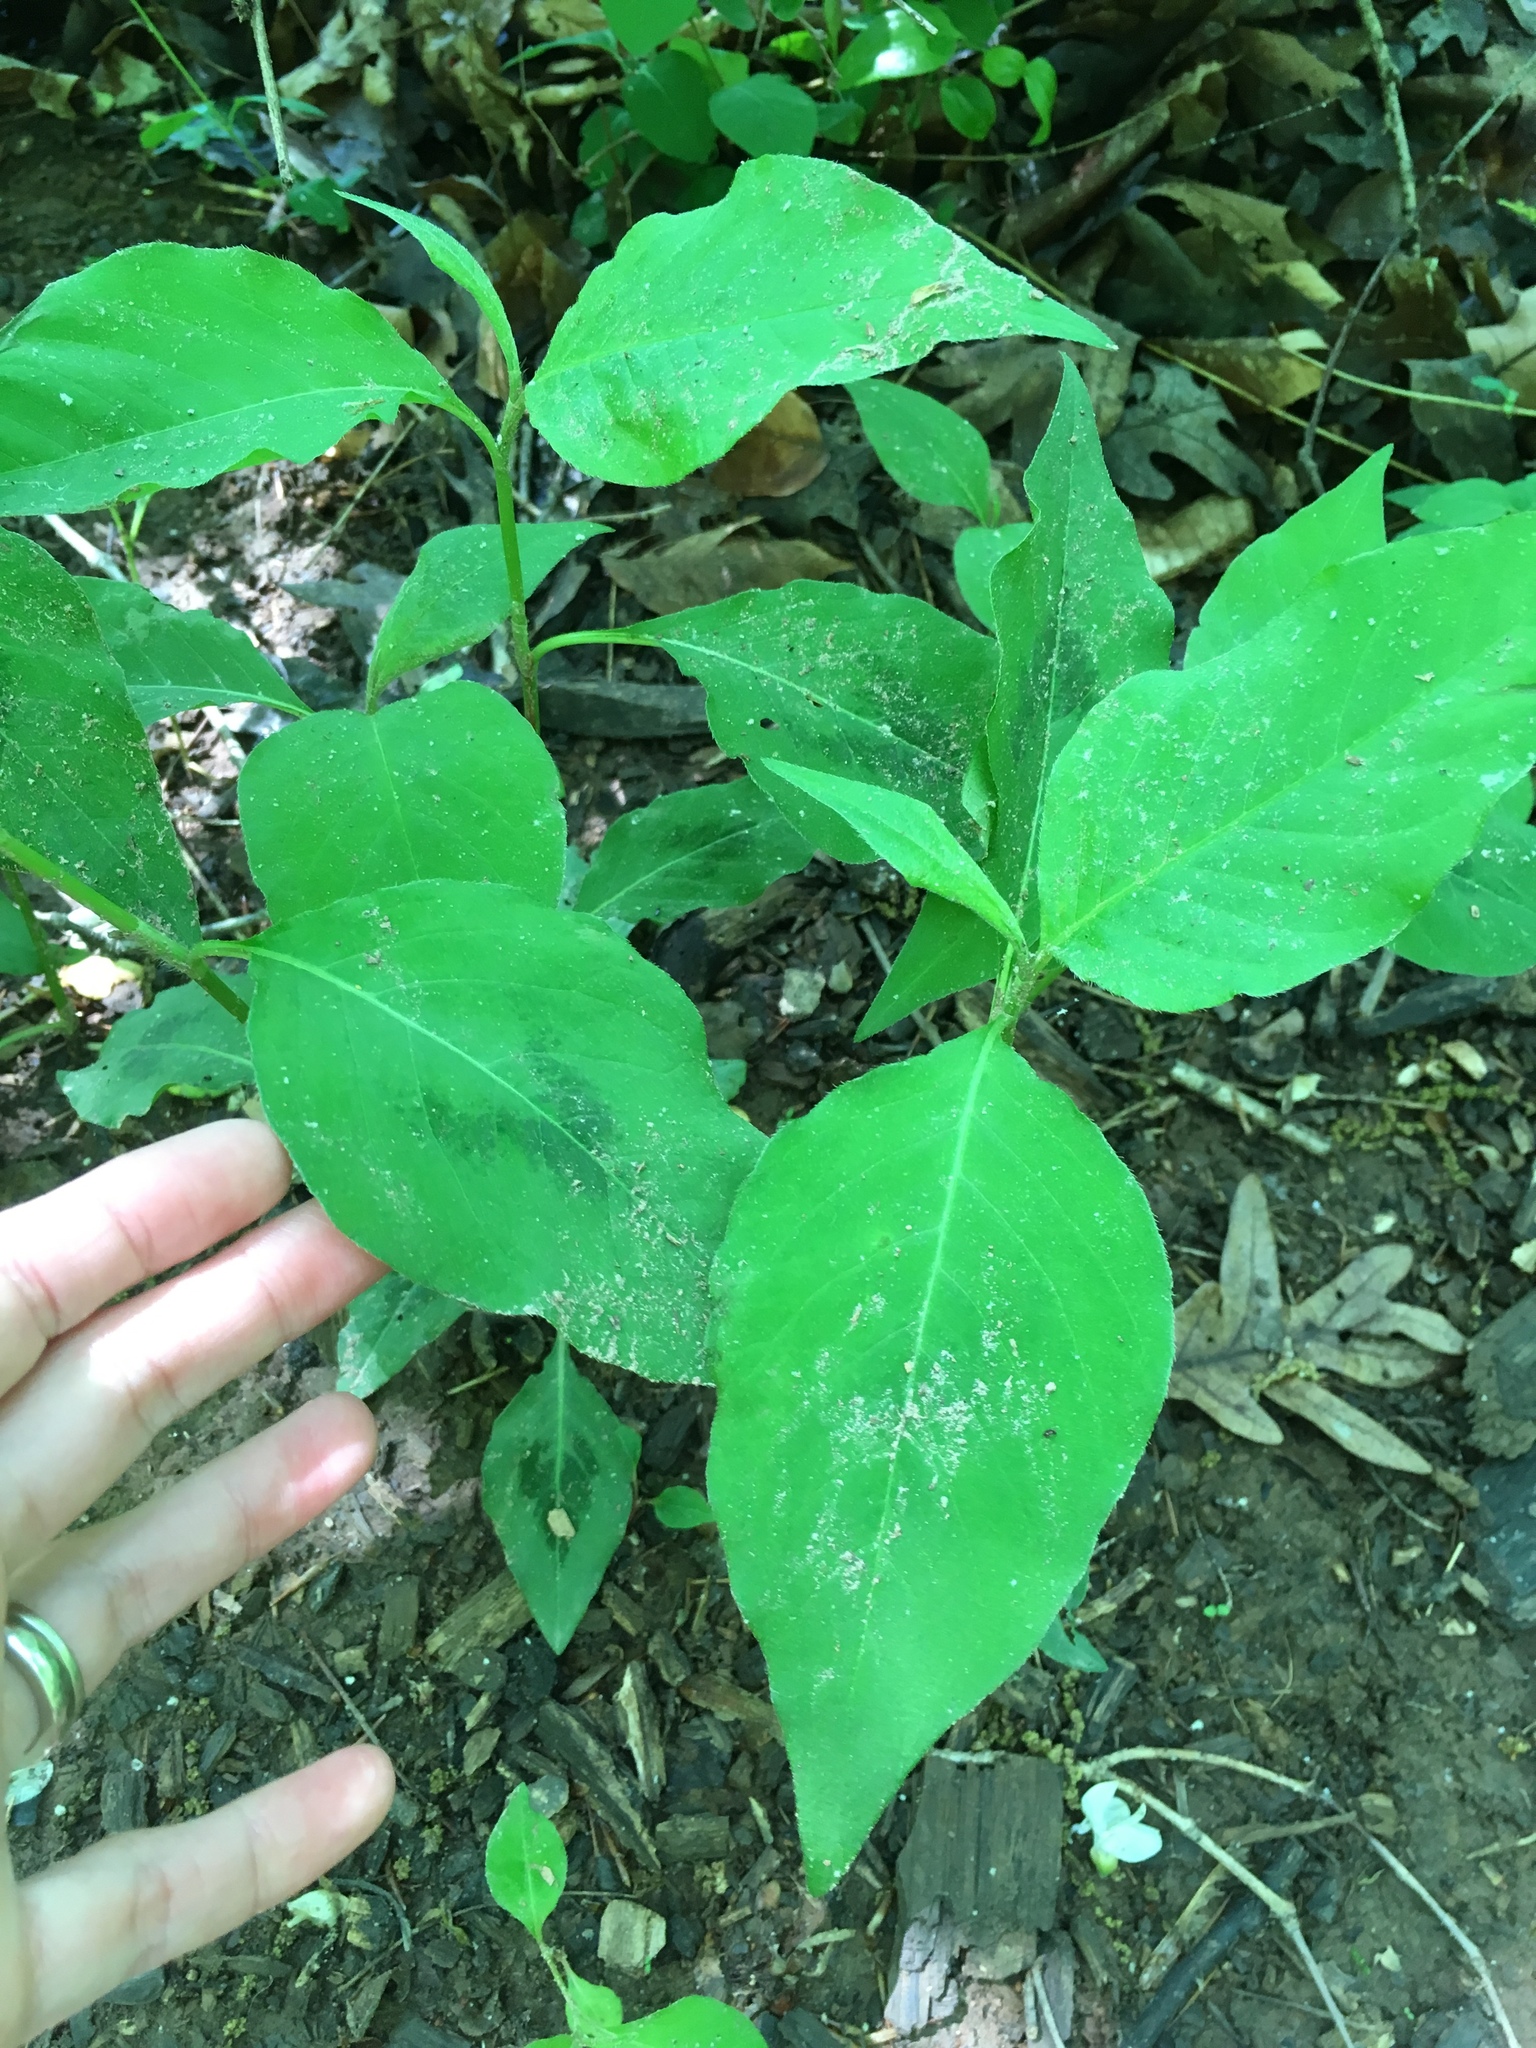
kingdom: Plantae
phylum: Tracheophyta
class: Magnoliopsida
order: Caryophyllales
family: Polygonaceae
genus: Persicaria
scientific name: Persicaria virginiana
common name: Jumpseed
